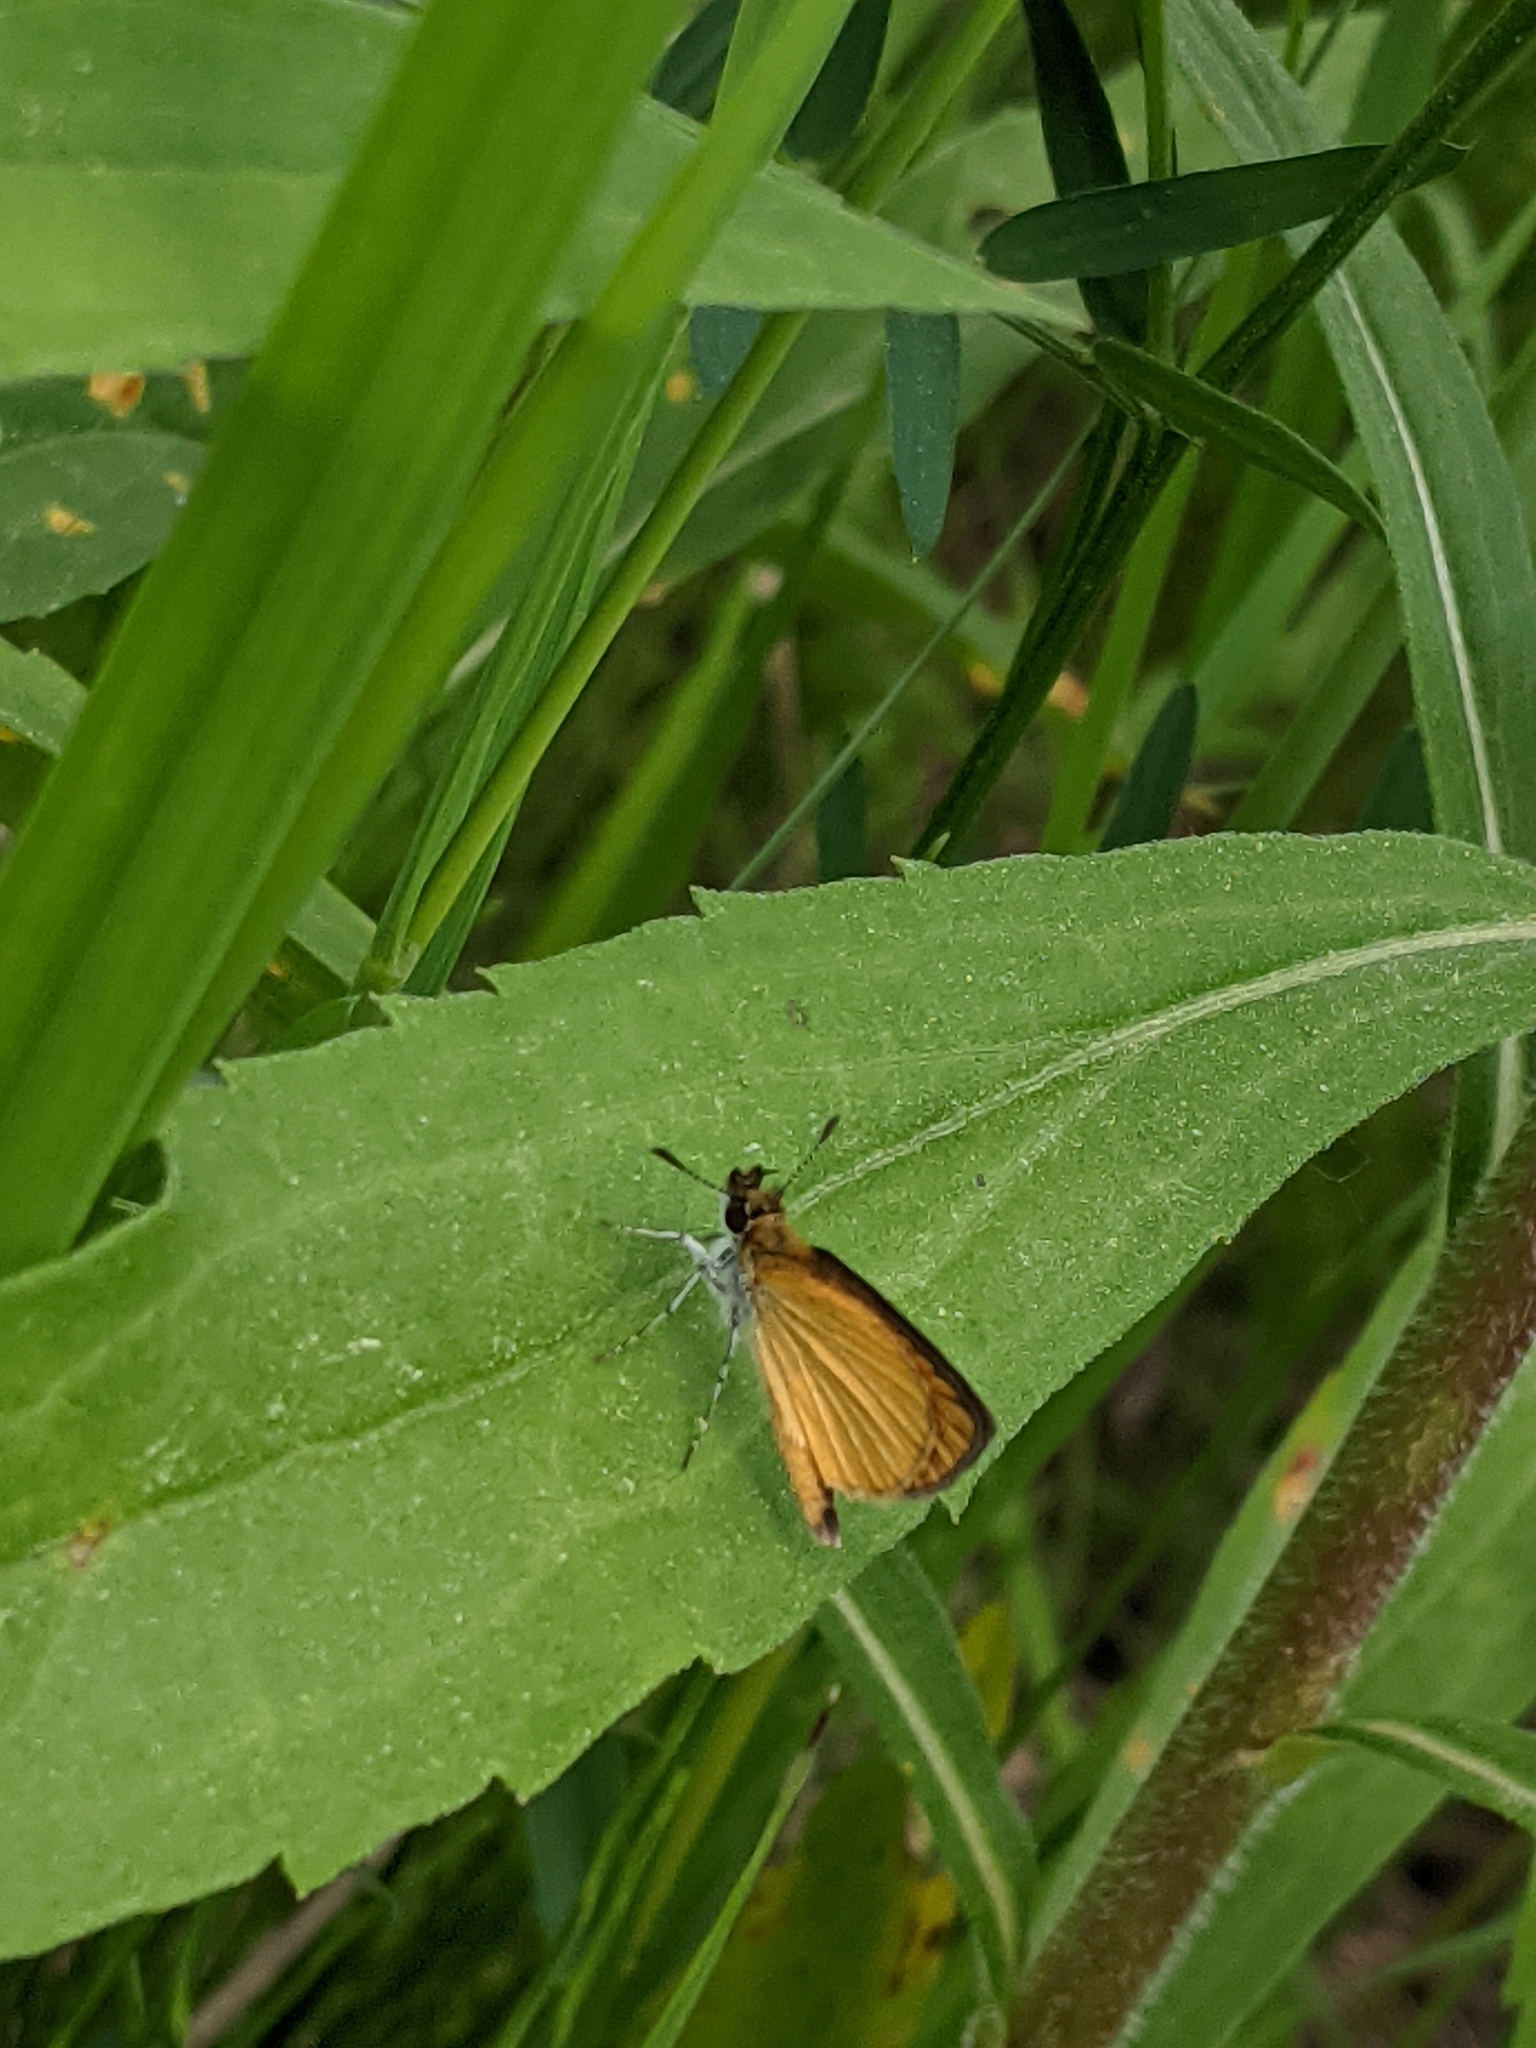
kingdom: Animalia
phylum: Arthropoda
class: Insecta
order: Lepidoptera
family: Hesperiidae
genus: Ancyloxypha
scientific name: Ancyloxypha numitor
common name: Least skipper
